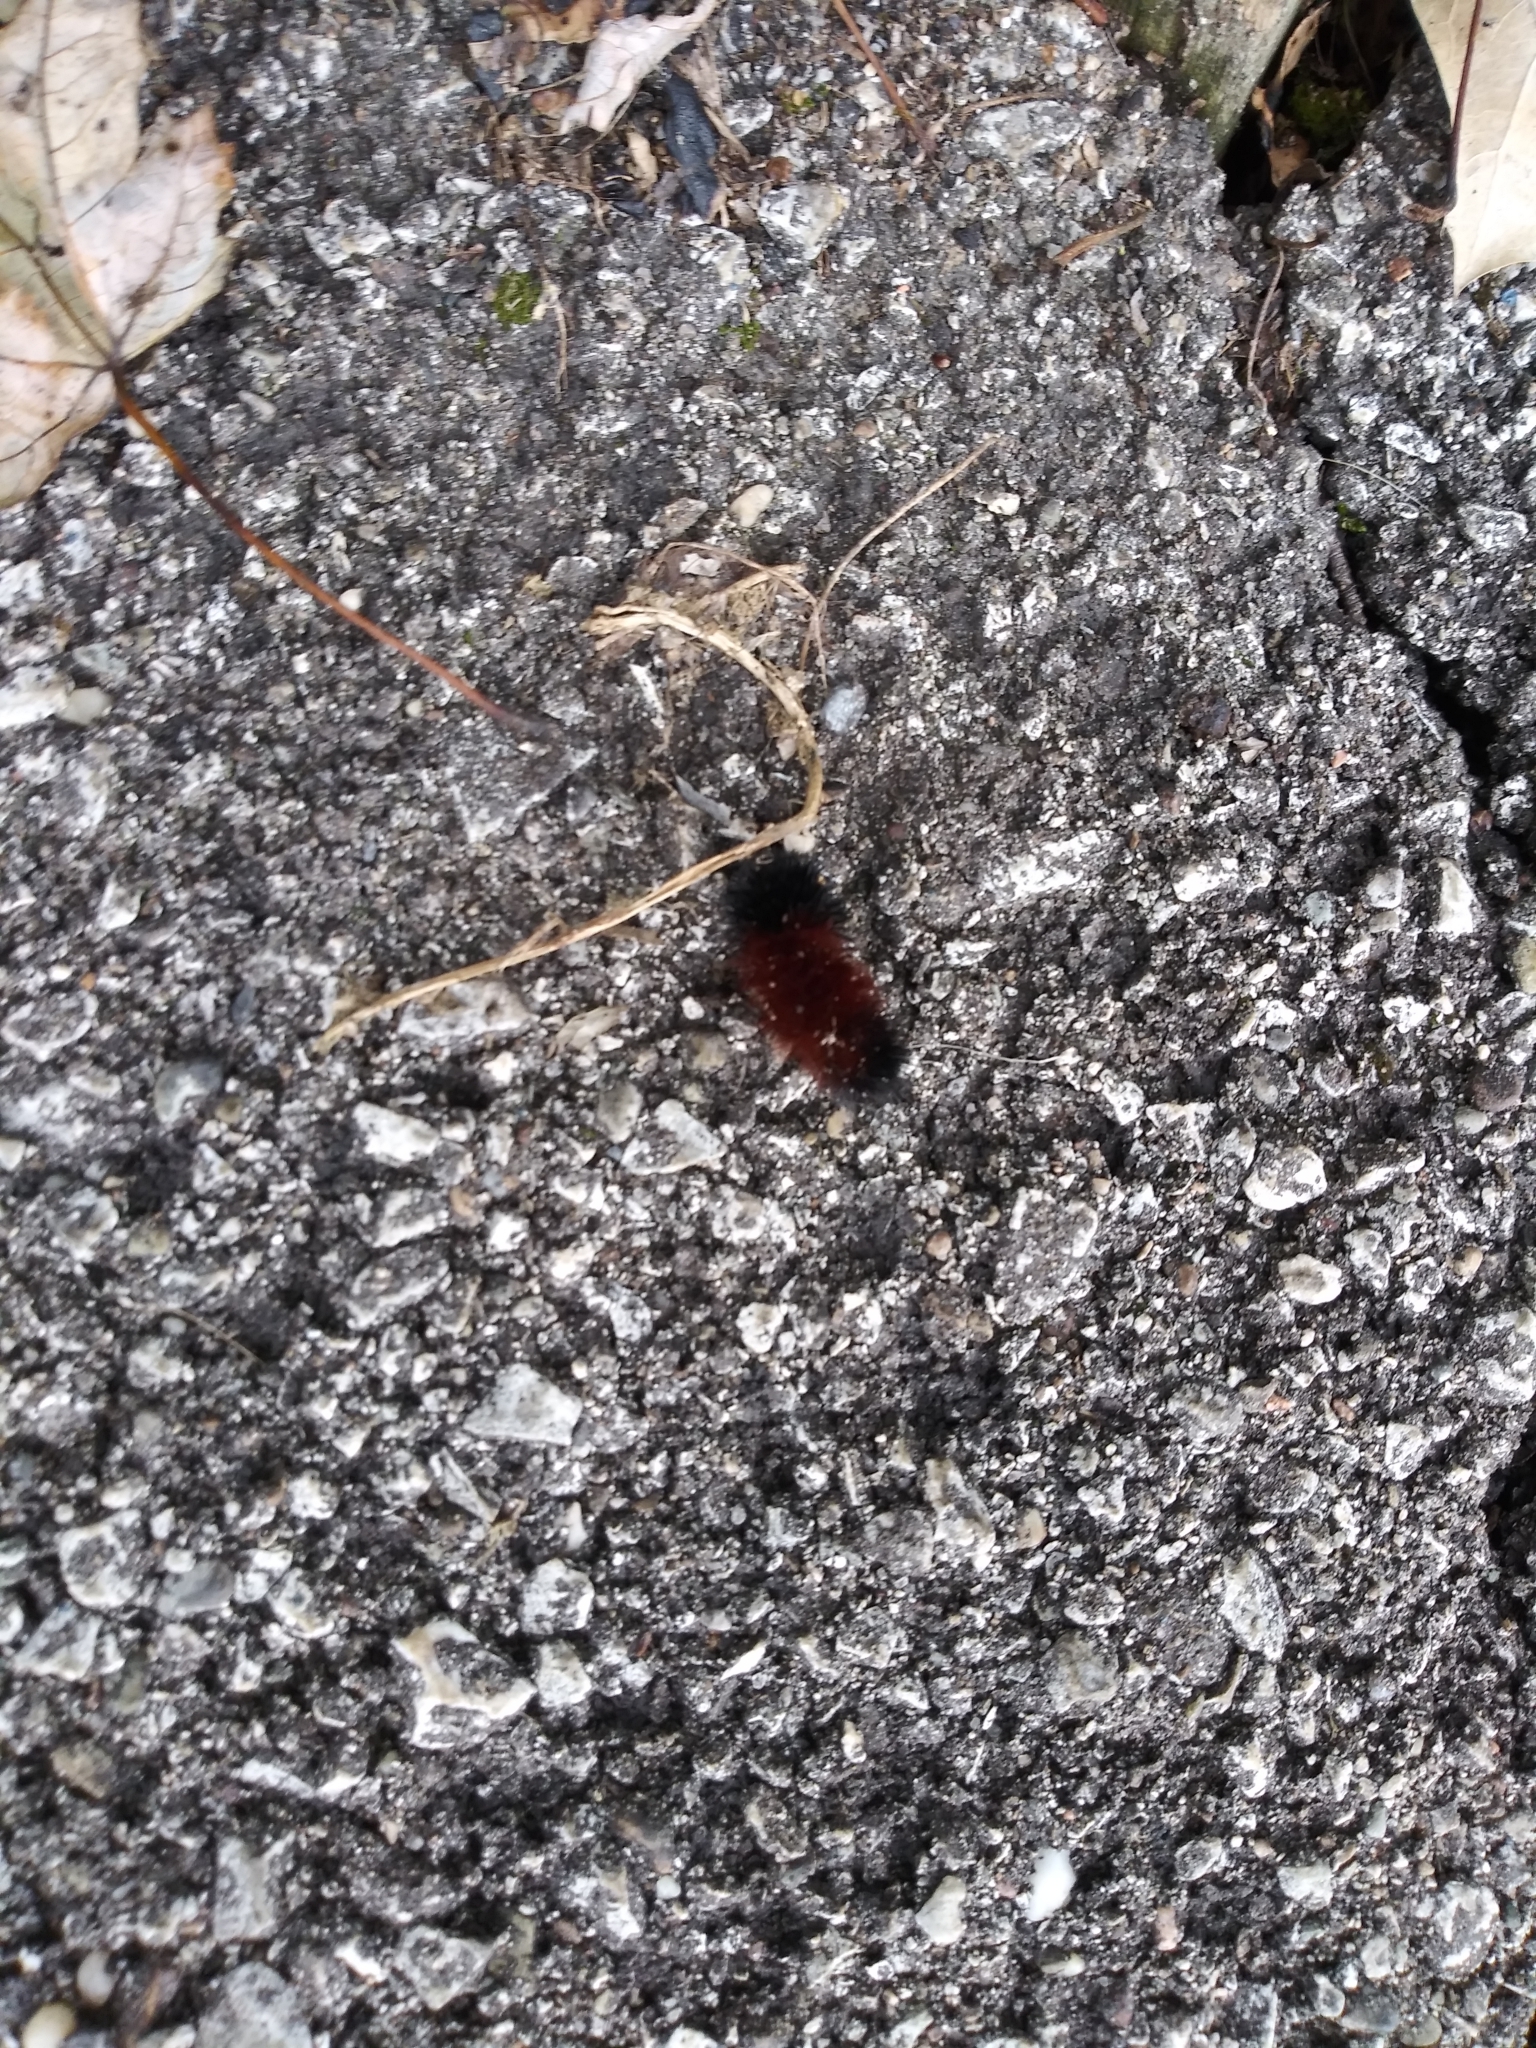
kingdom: Animalia
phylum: Arthropoda
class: Insecta
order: Lepidoptera
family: Erebidae
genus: Pyrrharctia
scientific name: Pyrrharctia isabella
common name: Isabella tiger moth
